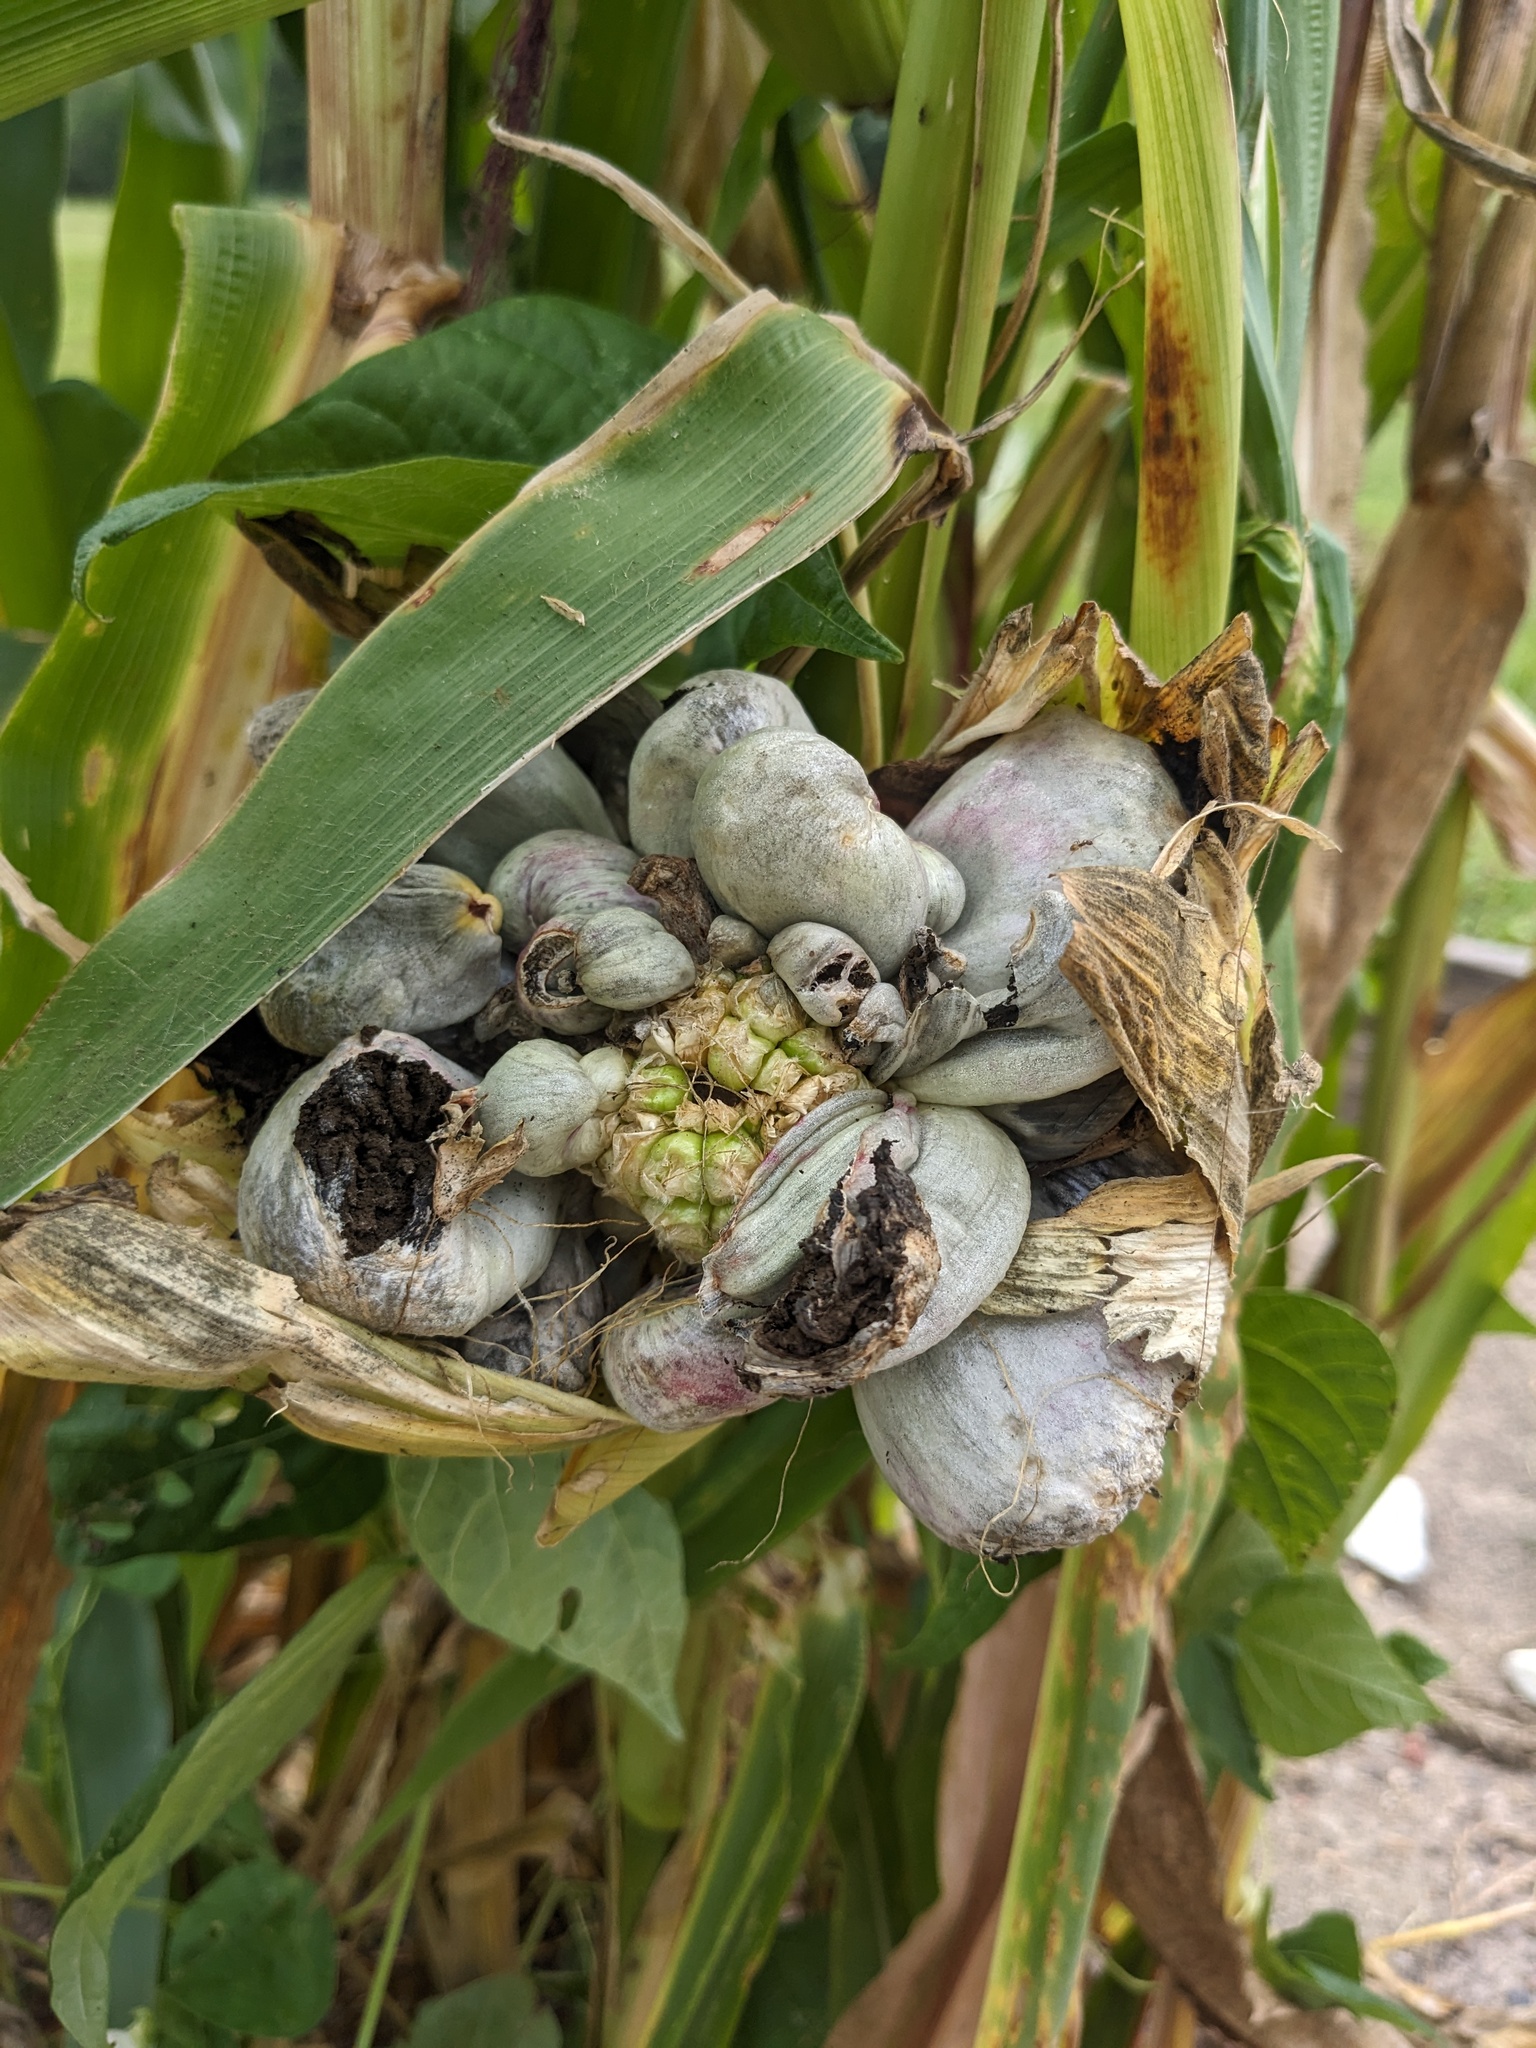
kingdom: Fungi
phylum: Basidiomycota
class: Ustilaginomycetes
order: Ustilaginales
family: Ustilaginaceae
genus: Mycosarcoma
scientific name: Mycosarcoma maydis
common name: Corn smut
